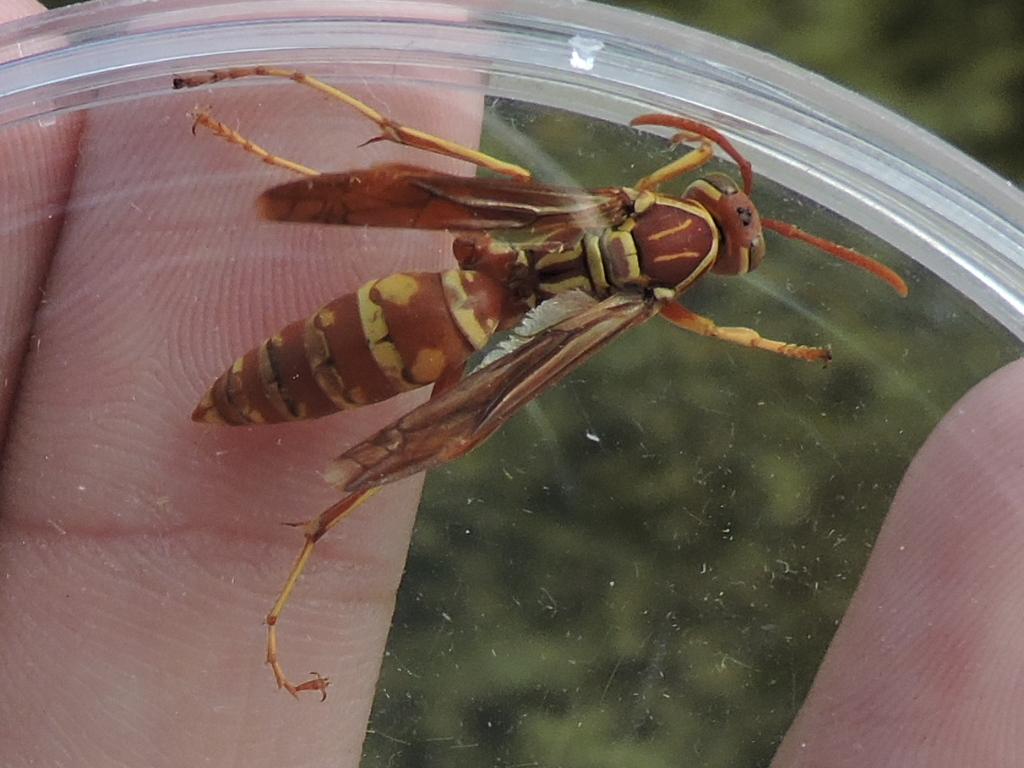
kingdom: Animalia
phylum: Arthropoda
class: Insecta
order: Hymenoptera
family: Eumenidae
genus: Polistes
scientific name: Polistes apachus
